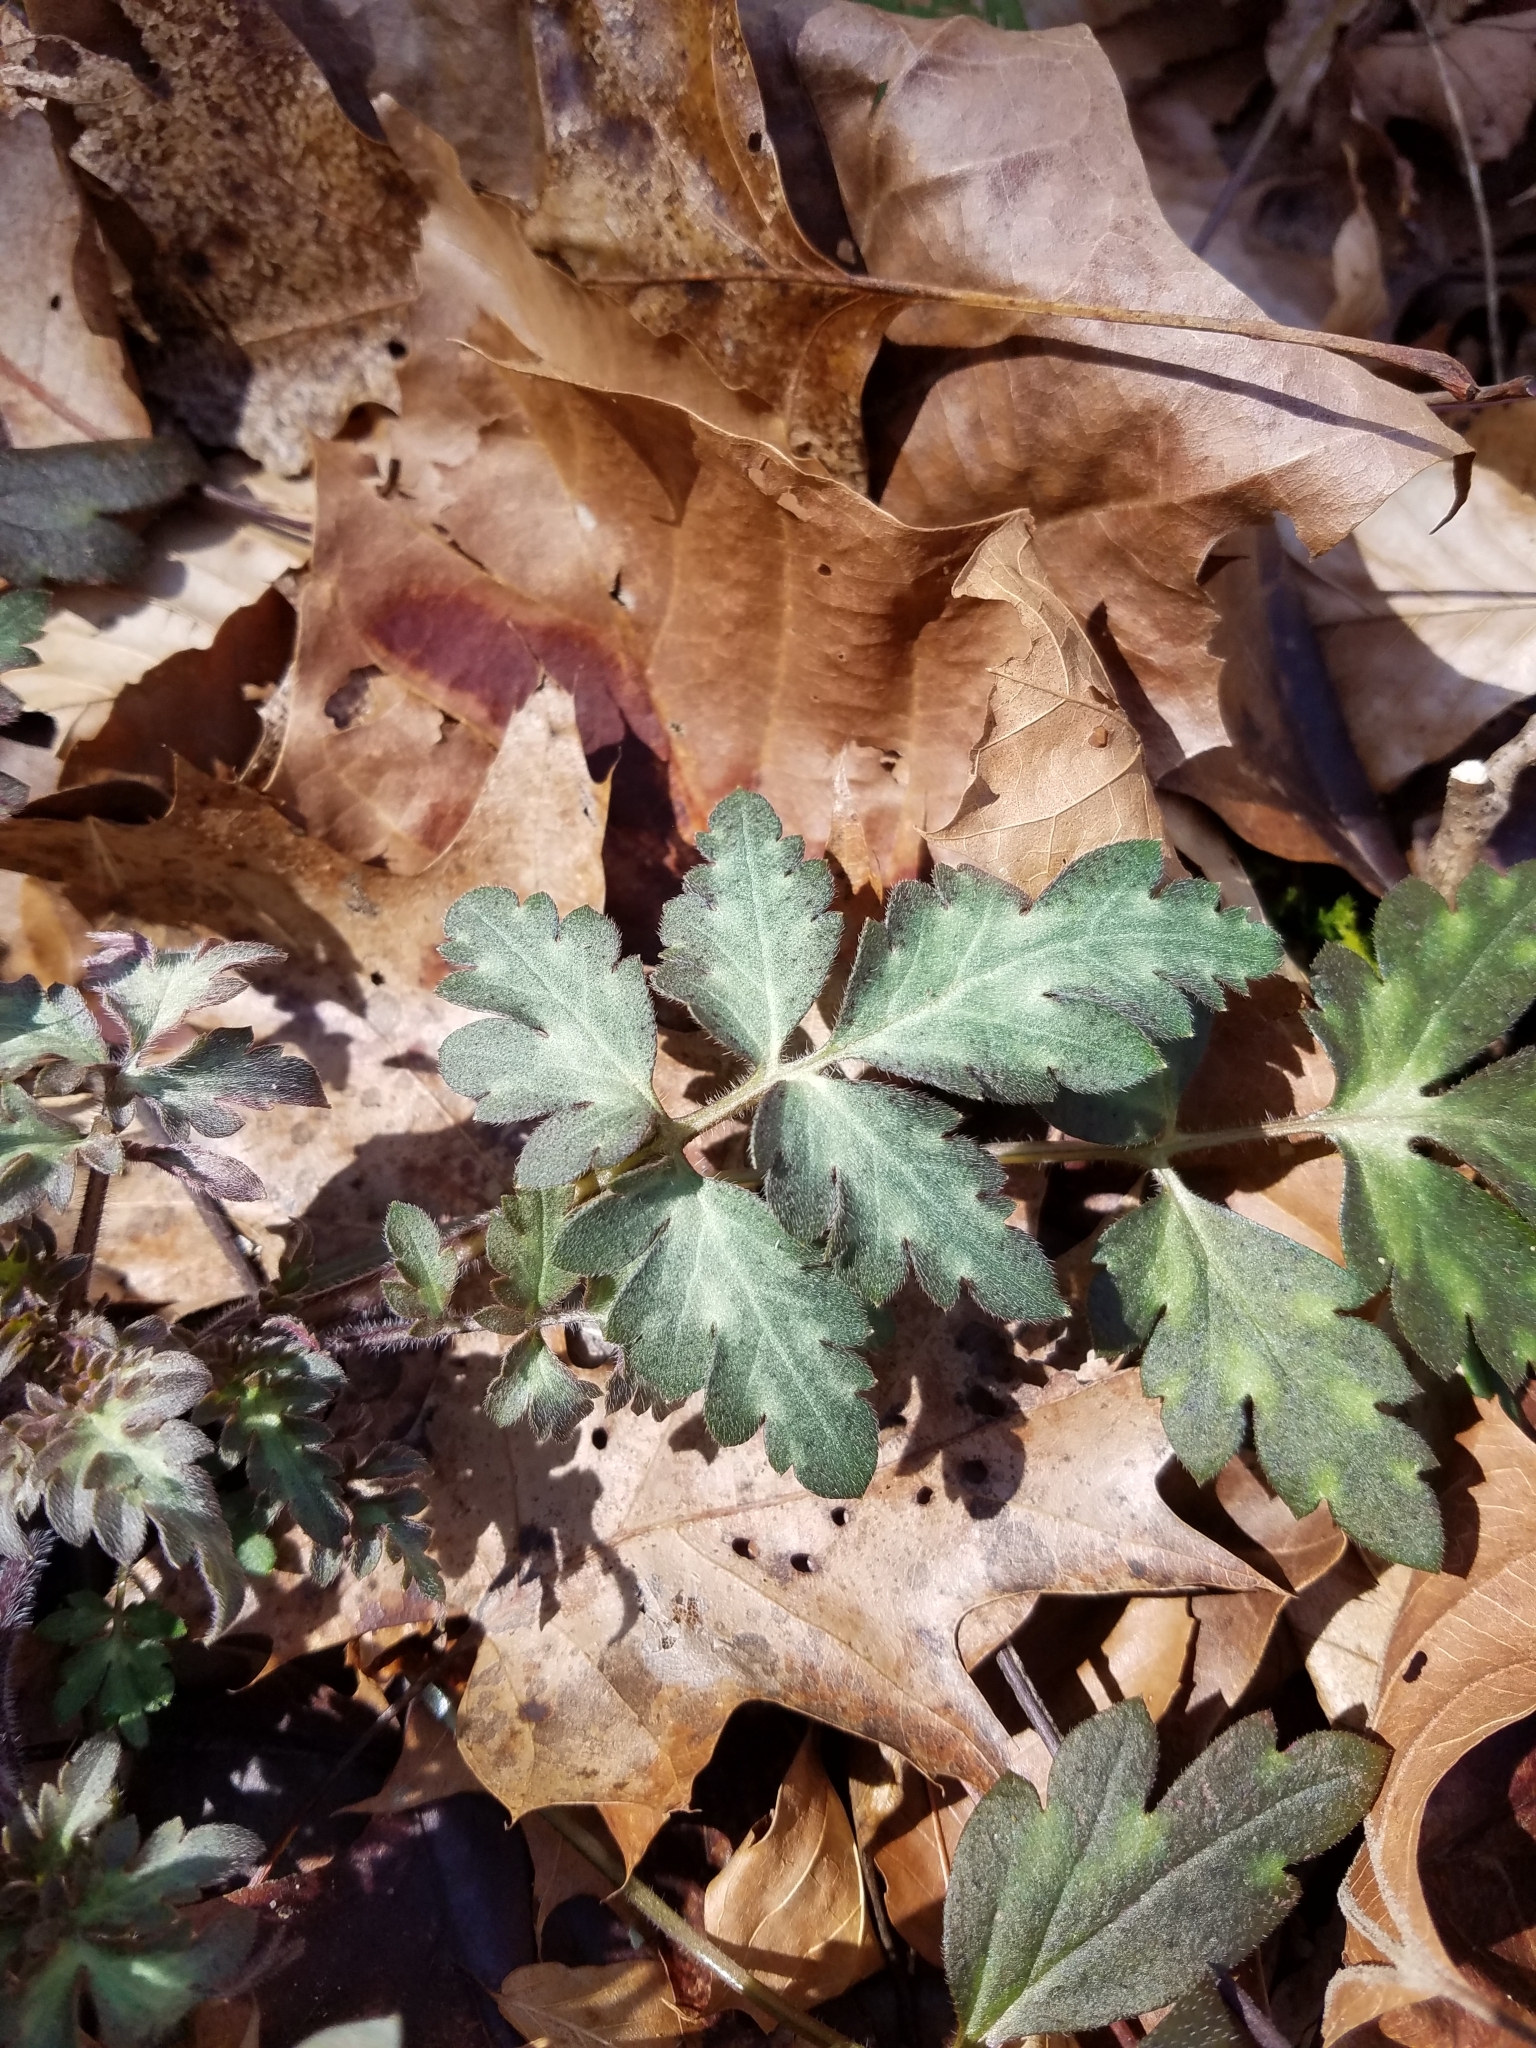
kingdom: Plantae
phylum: Tracheophyta
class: Magnoliopsida
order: Boraginales
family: Hydrophyllaceae
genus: Phacelia
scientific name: Phacelia bipinnatifida
